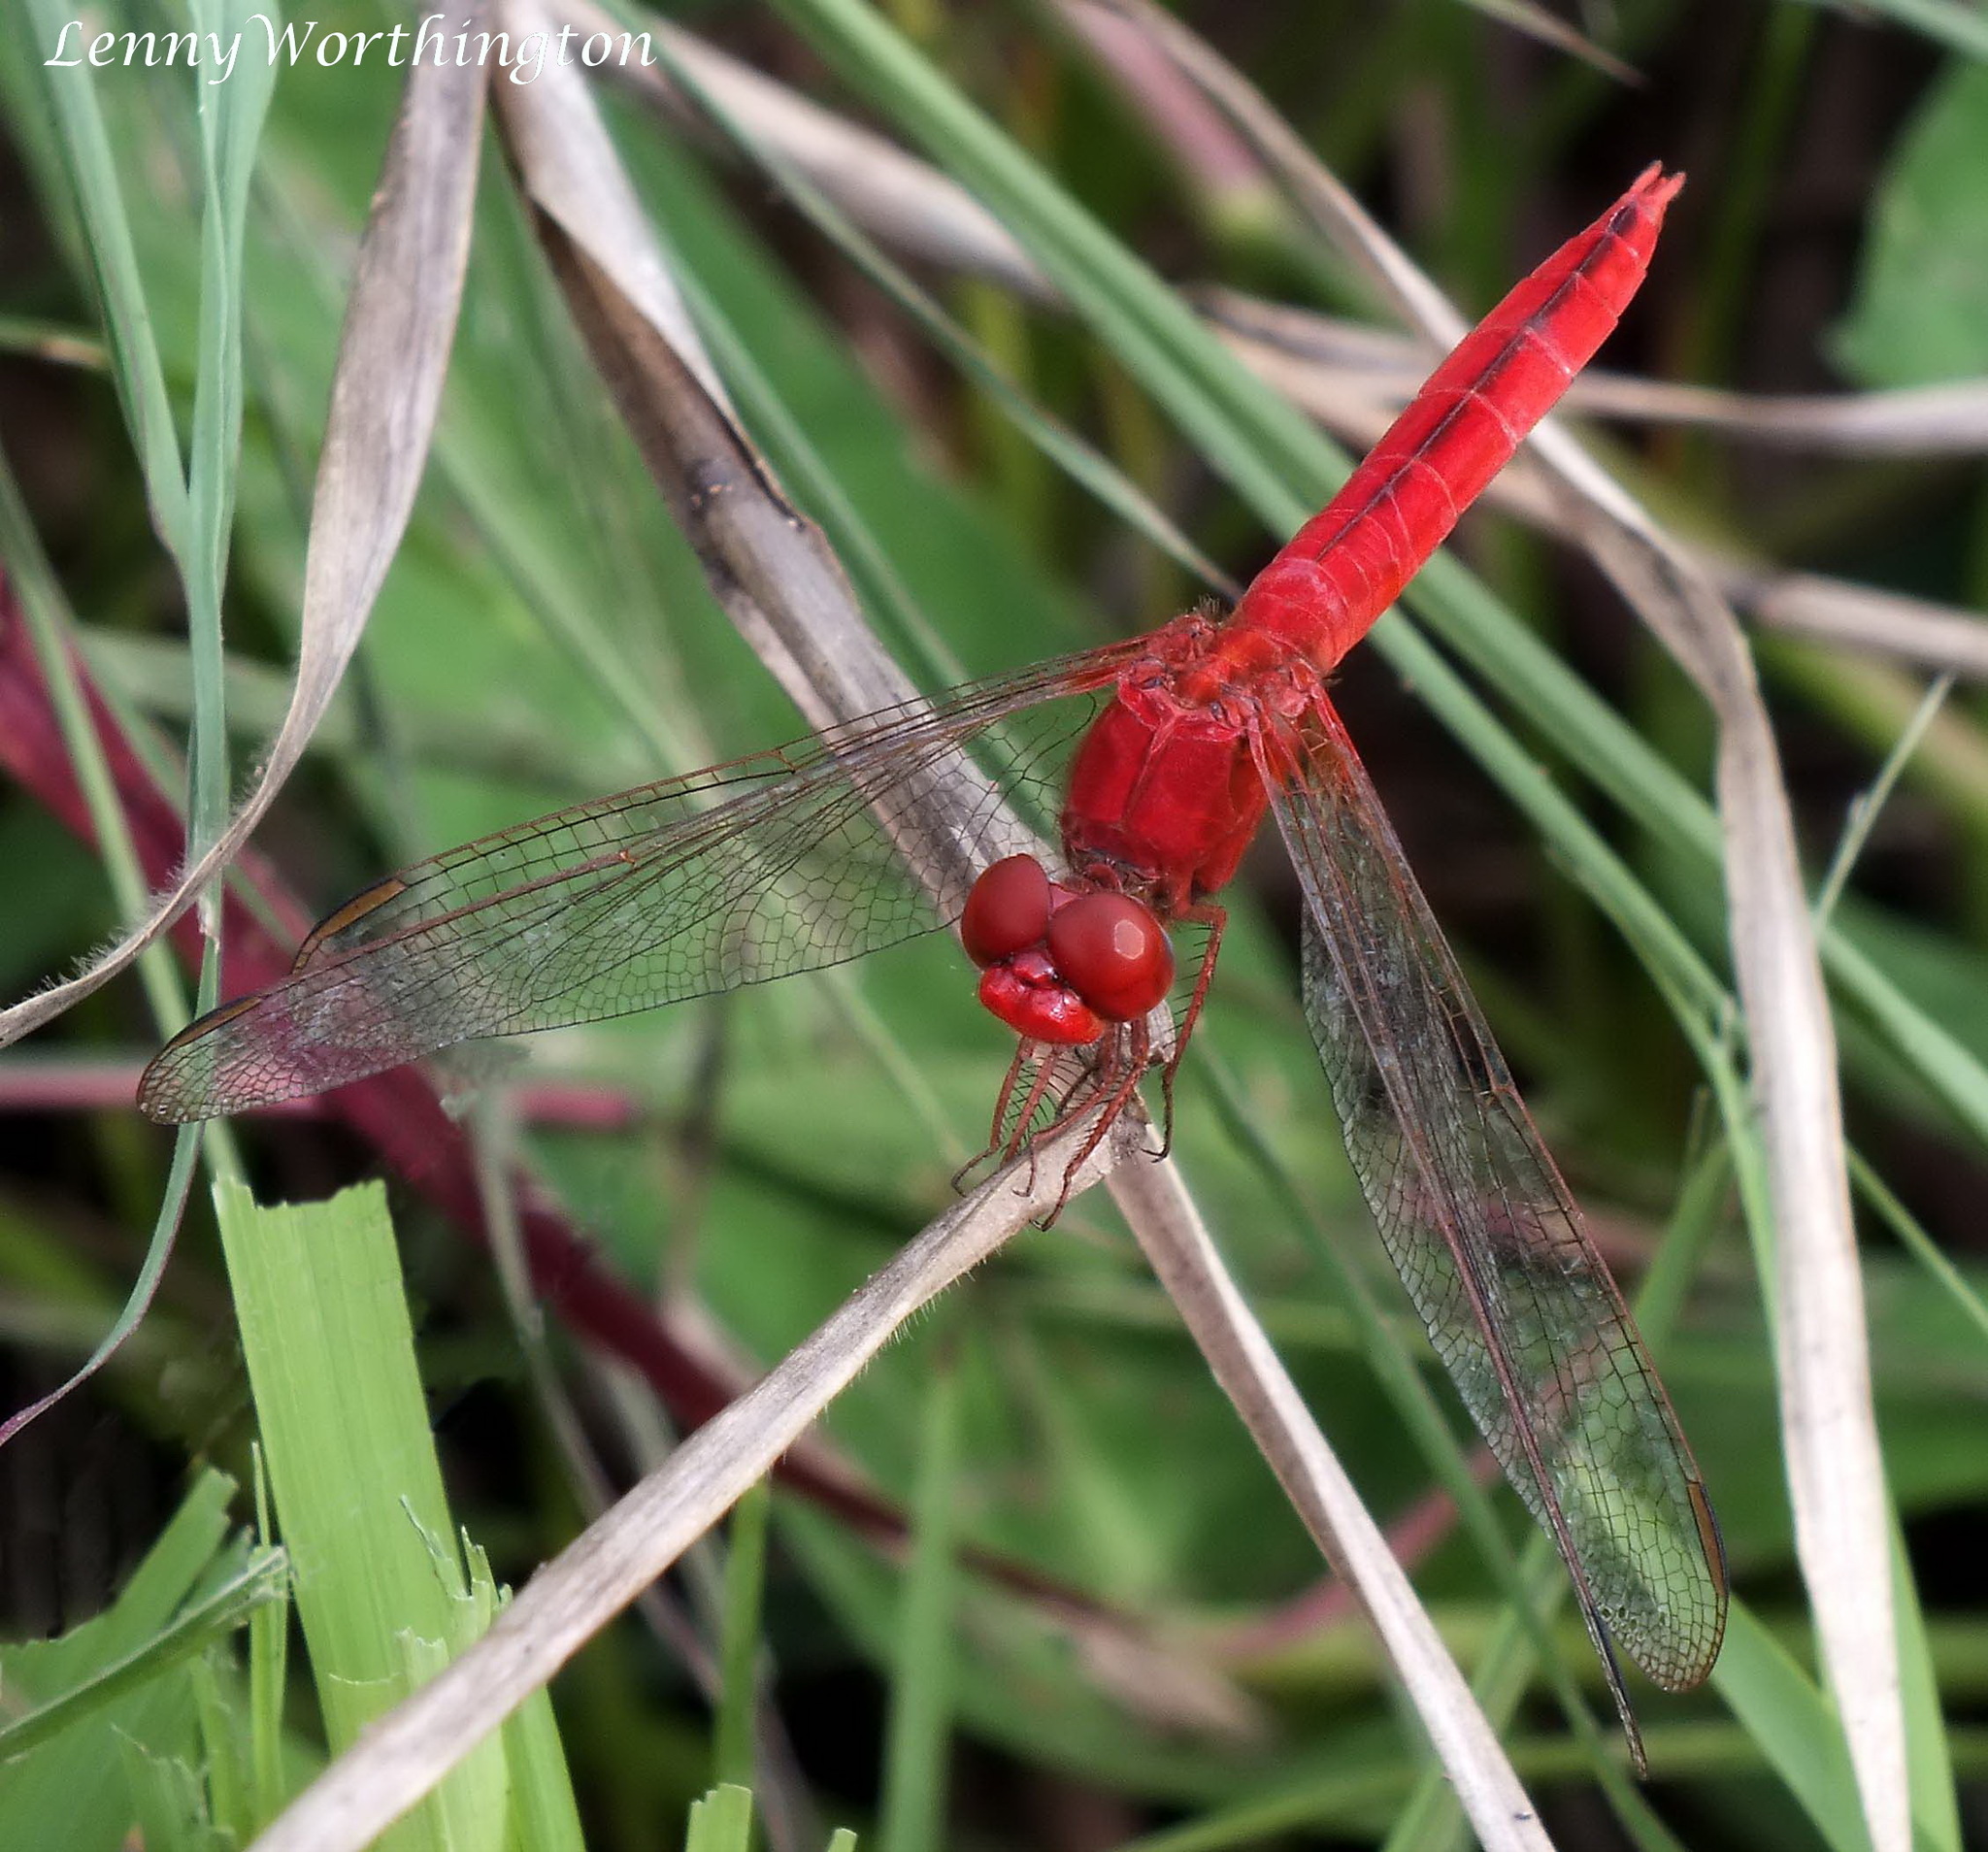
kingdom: Animalia
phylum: Arthropoda
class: Insecta
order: Odonata
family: Libellulidae
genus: Crocothemis
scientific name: Crocothemis servilia
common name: Scarlet skimmer
